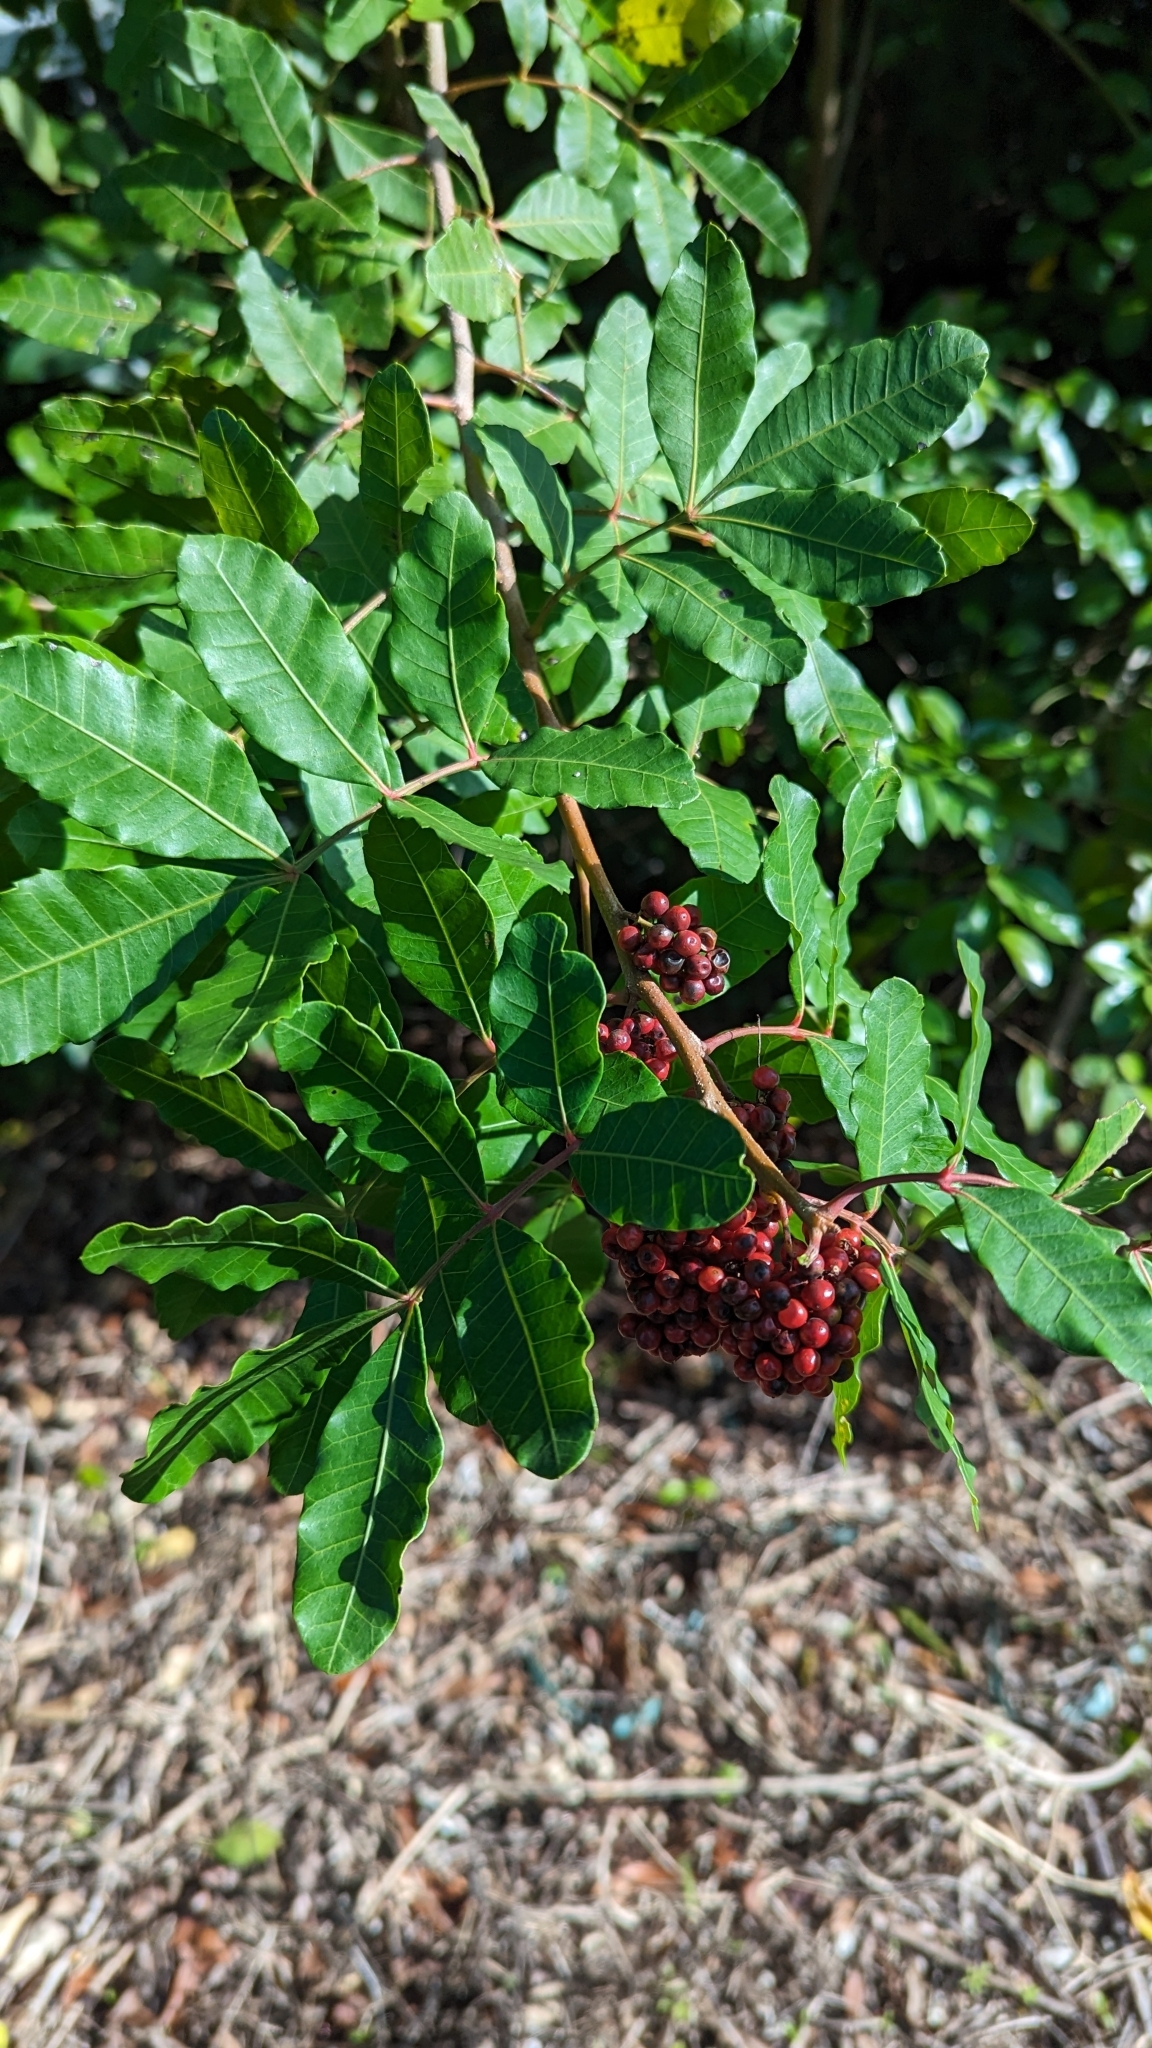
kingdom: Plantae
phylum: Tracheophyta
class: Magnoliopsida
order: Sapindales
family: Anacardiaceae
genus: Schinus
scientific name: Schinus terebinthifolia
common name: Brazilian peppertree
